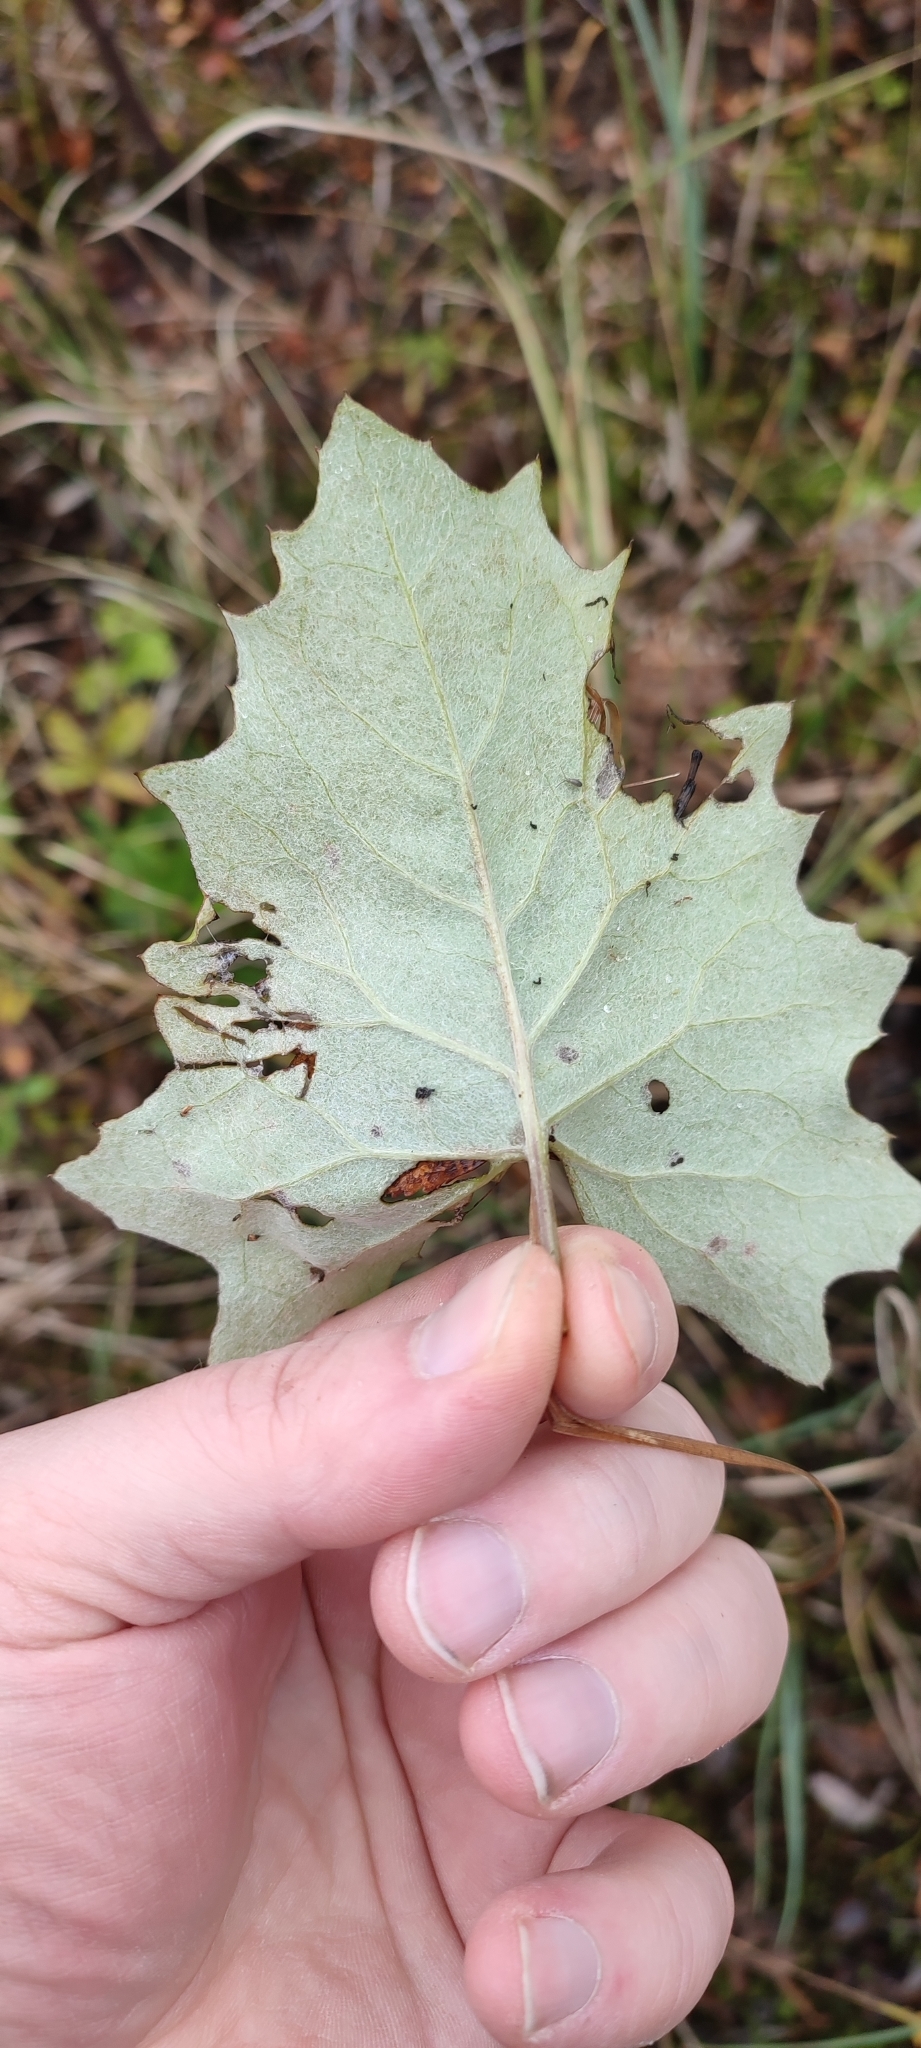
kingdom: Plantae
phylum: Tracheophyta
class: Magnoliopsida
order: Asterales
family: Asteraceae
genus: Petasites
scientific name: Petasites frigidus
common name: Arctic butterbur
